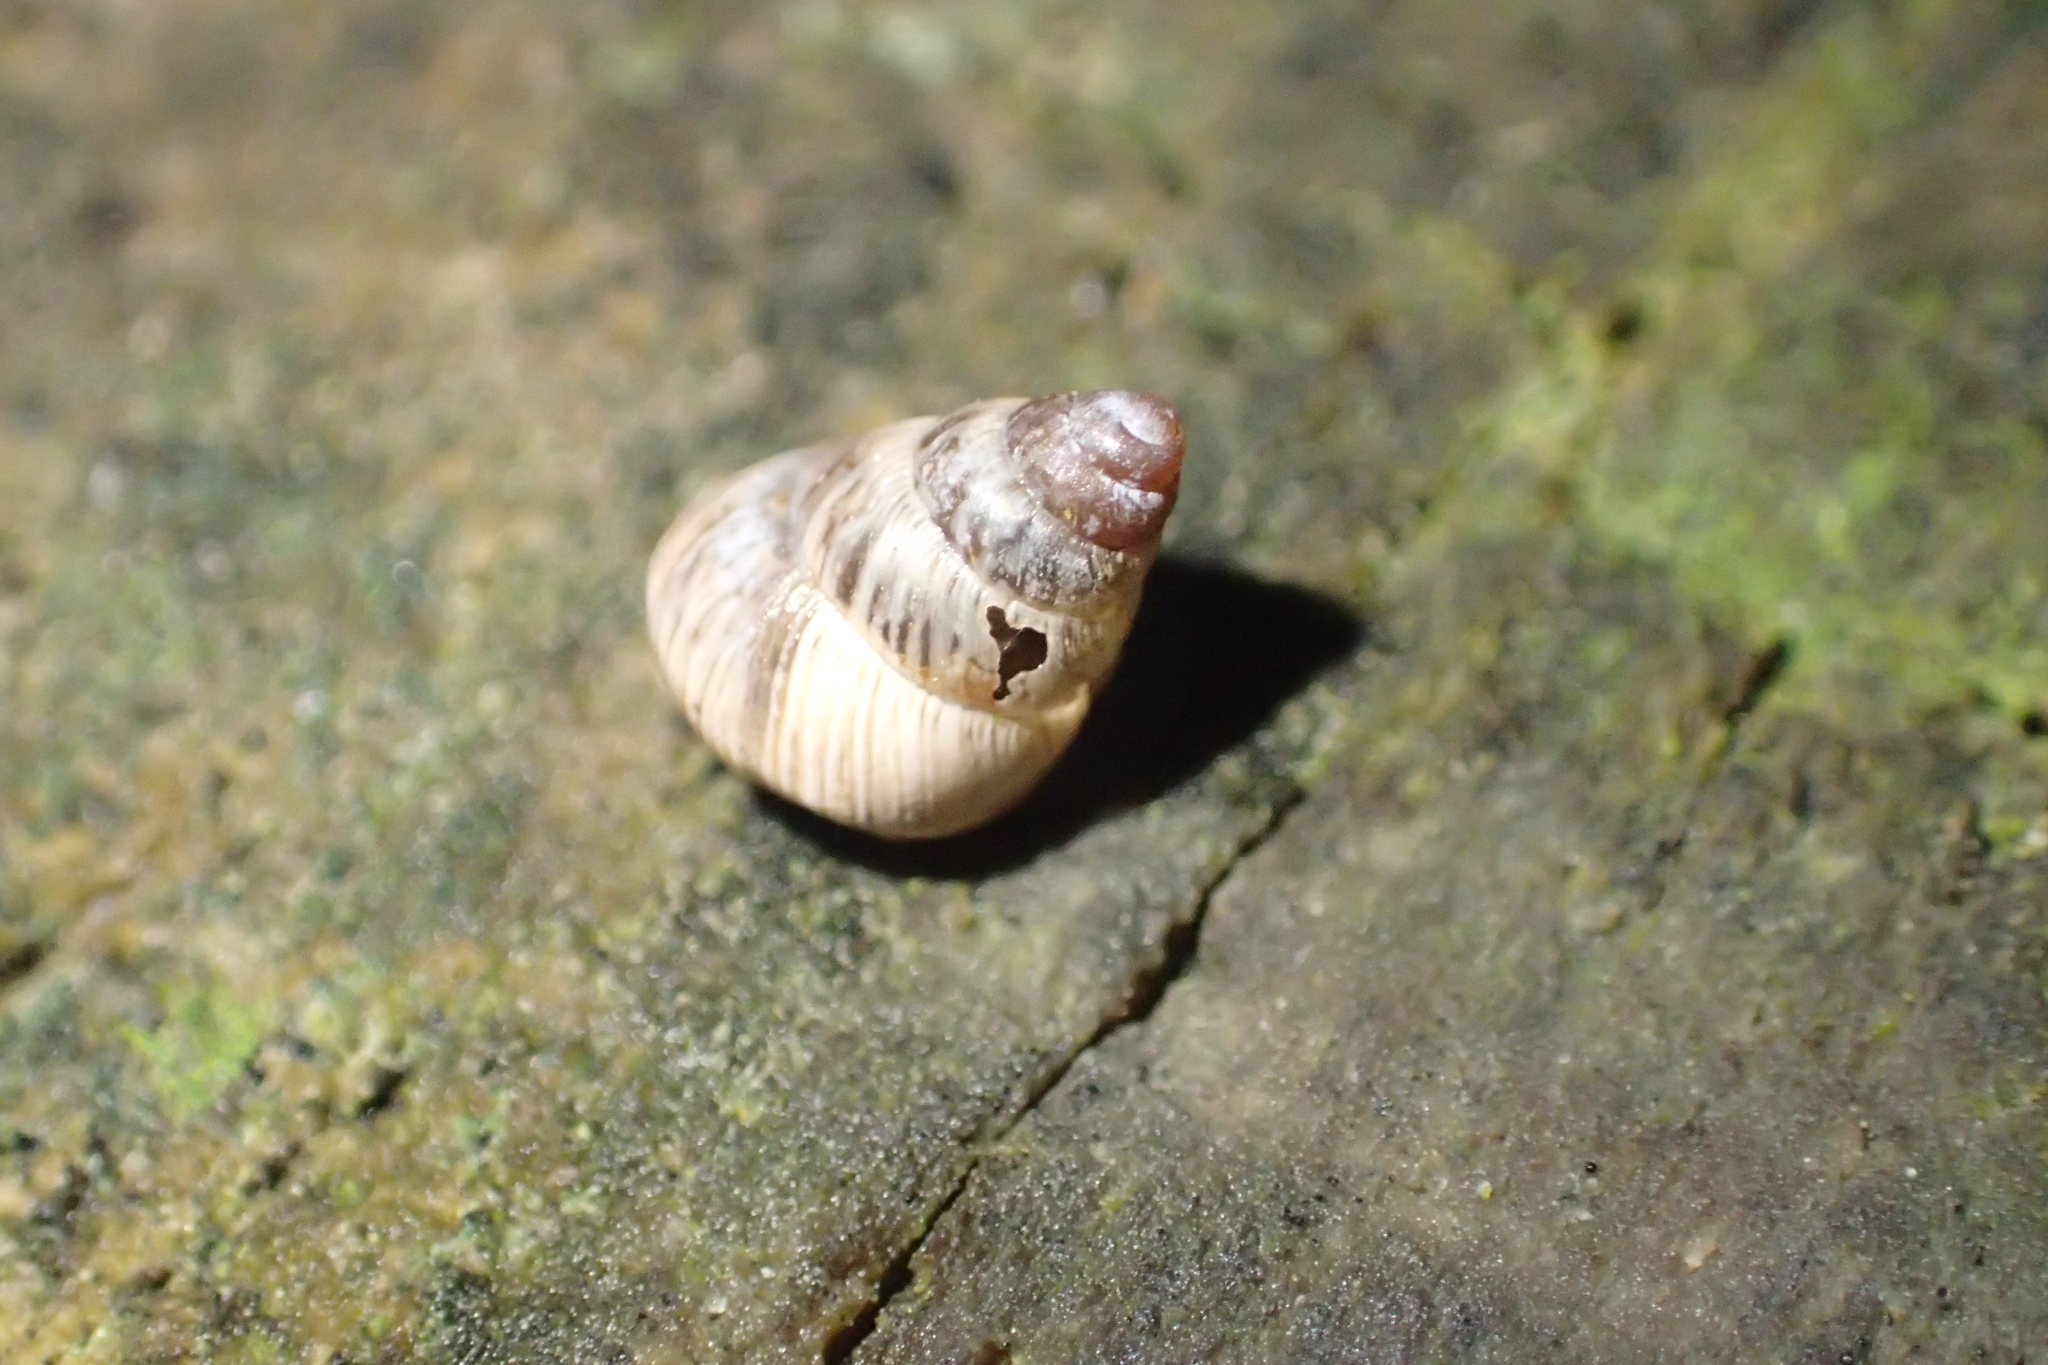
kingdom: Animalia
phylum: Mollusca
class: Gastropoda
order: Stylommatophora
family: Geomitridae
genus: Cochlicella
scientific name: Cochlicella barbara
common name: Potbellied helicellid
